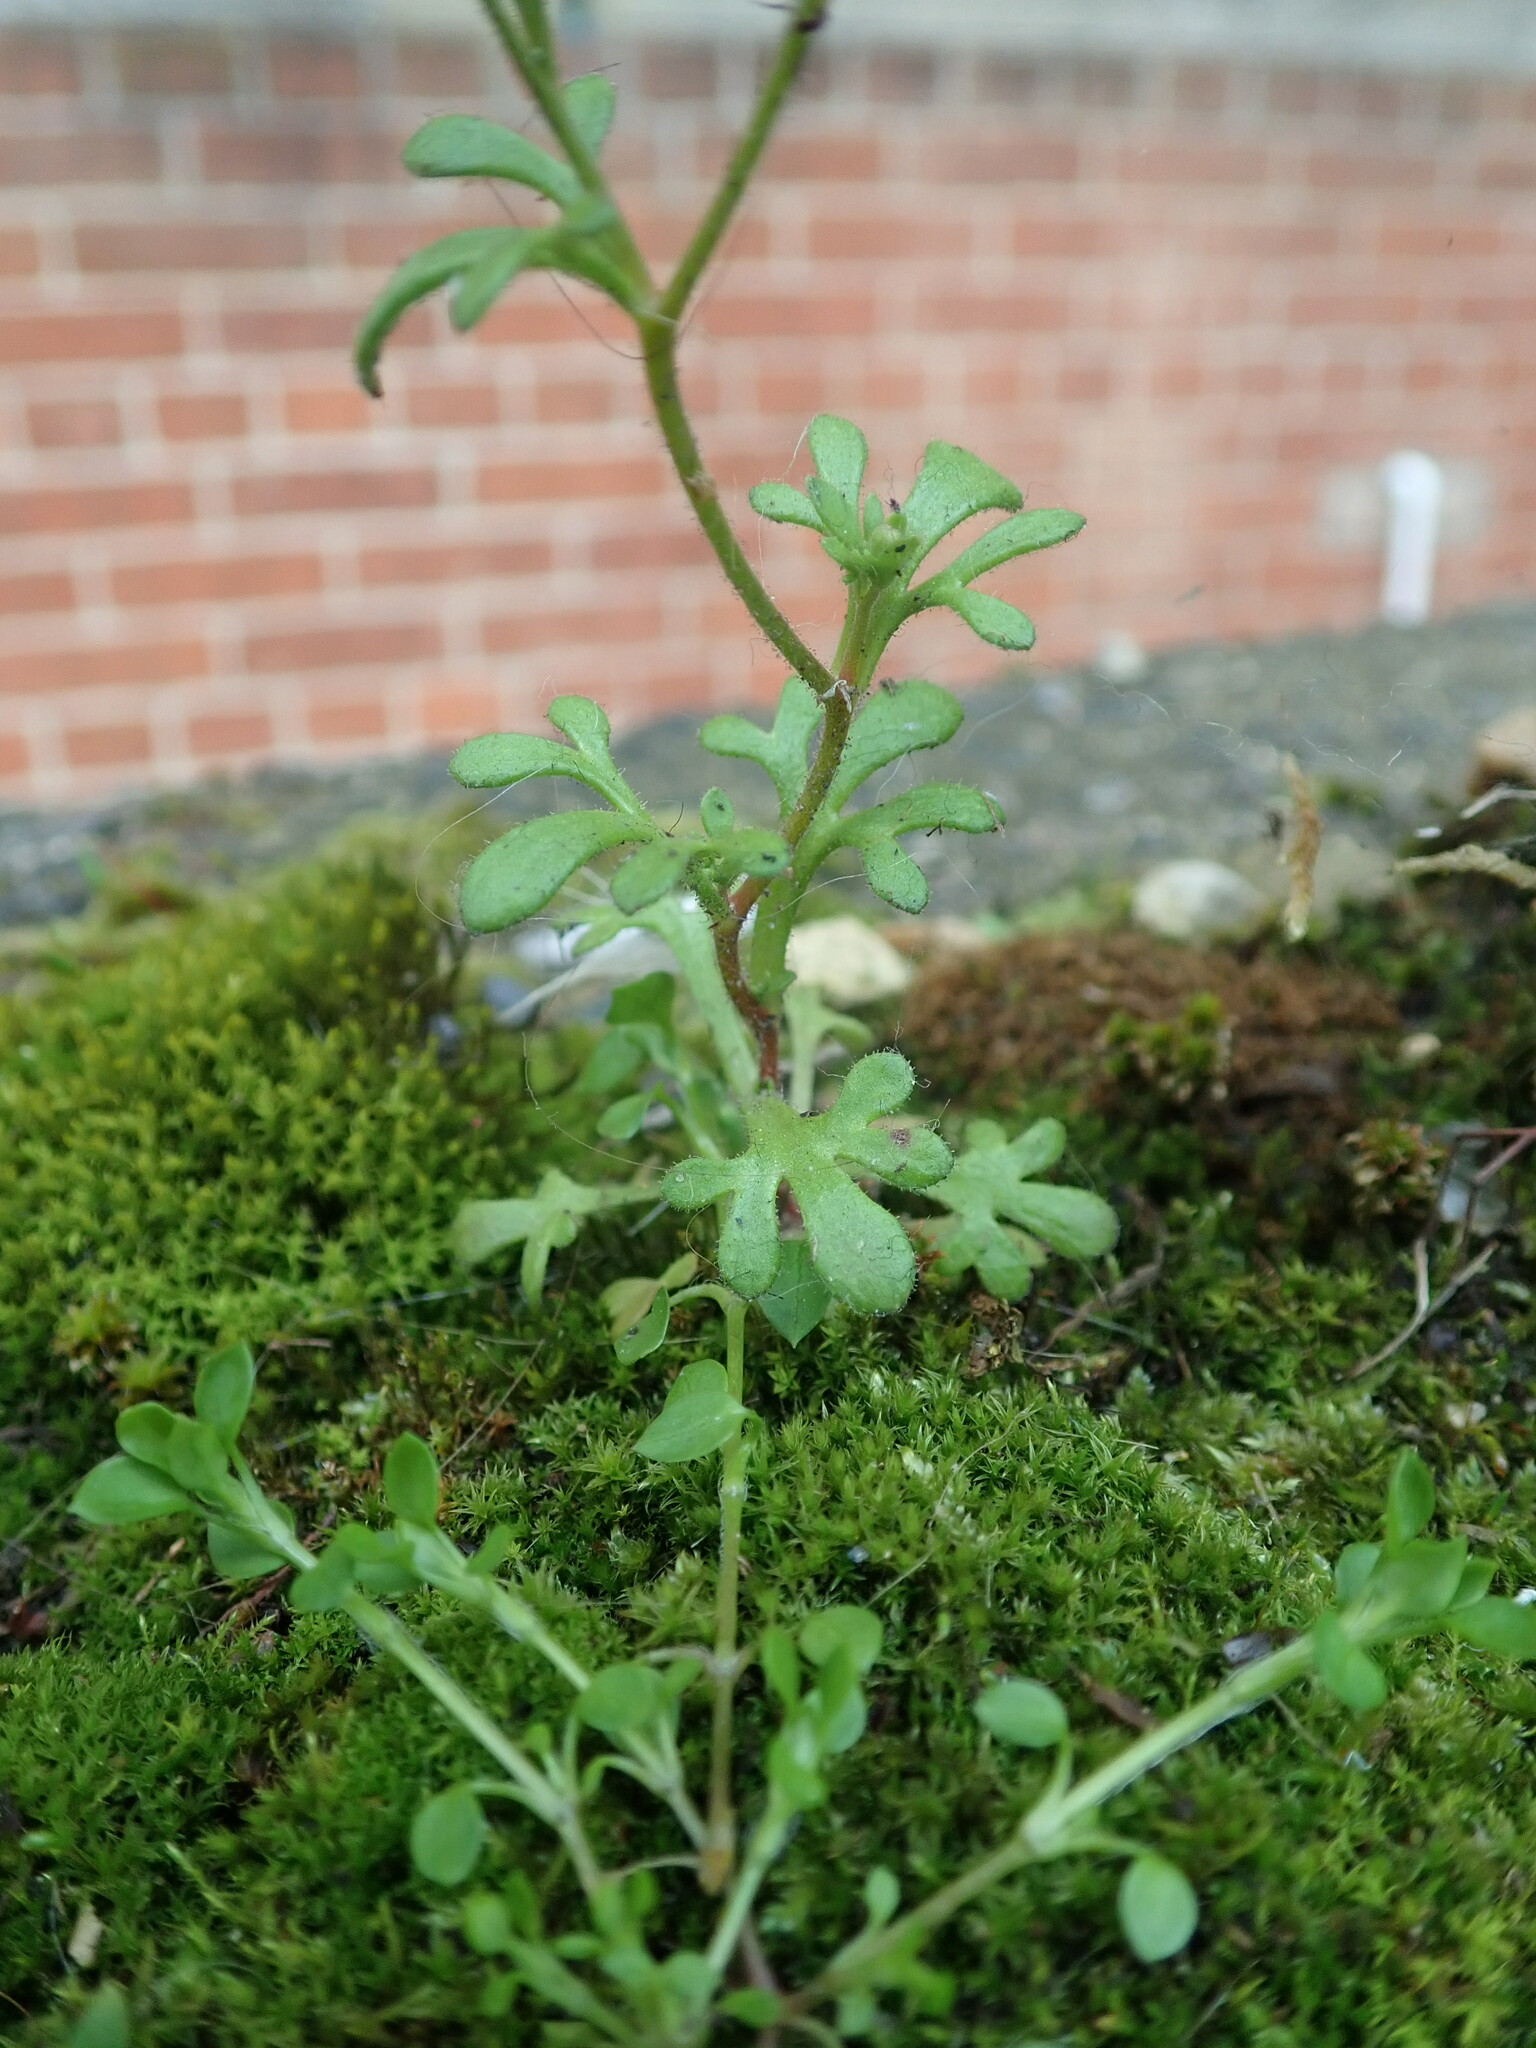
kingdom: Plantae
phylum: Tracheophyta
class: Magnoliopsida
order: Saxifragales
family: Saxifragaceae
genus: Saxifraga
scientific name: Saxifraga tridactylites
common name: Rue-leaved saxifrage
